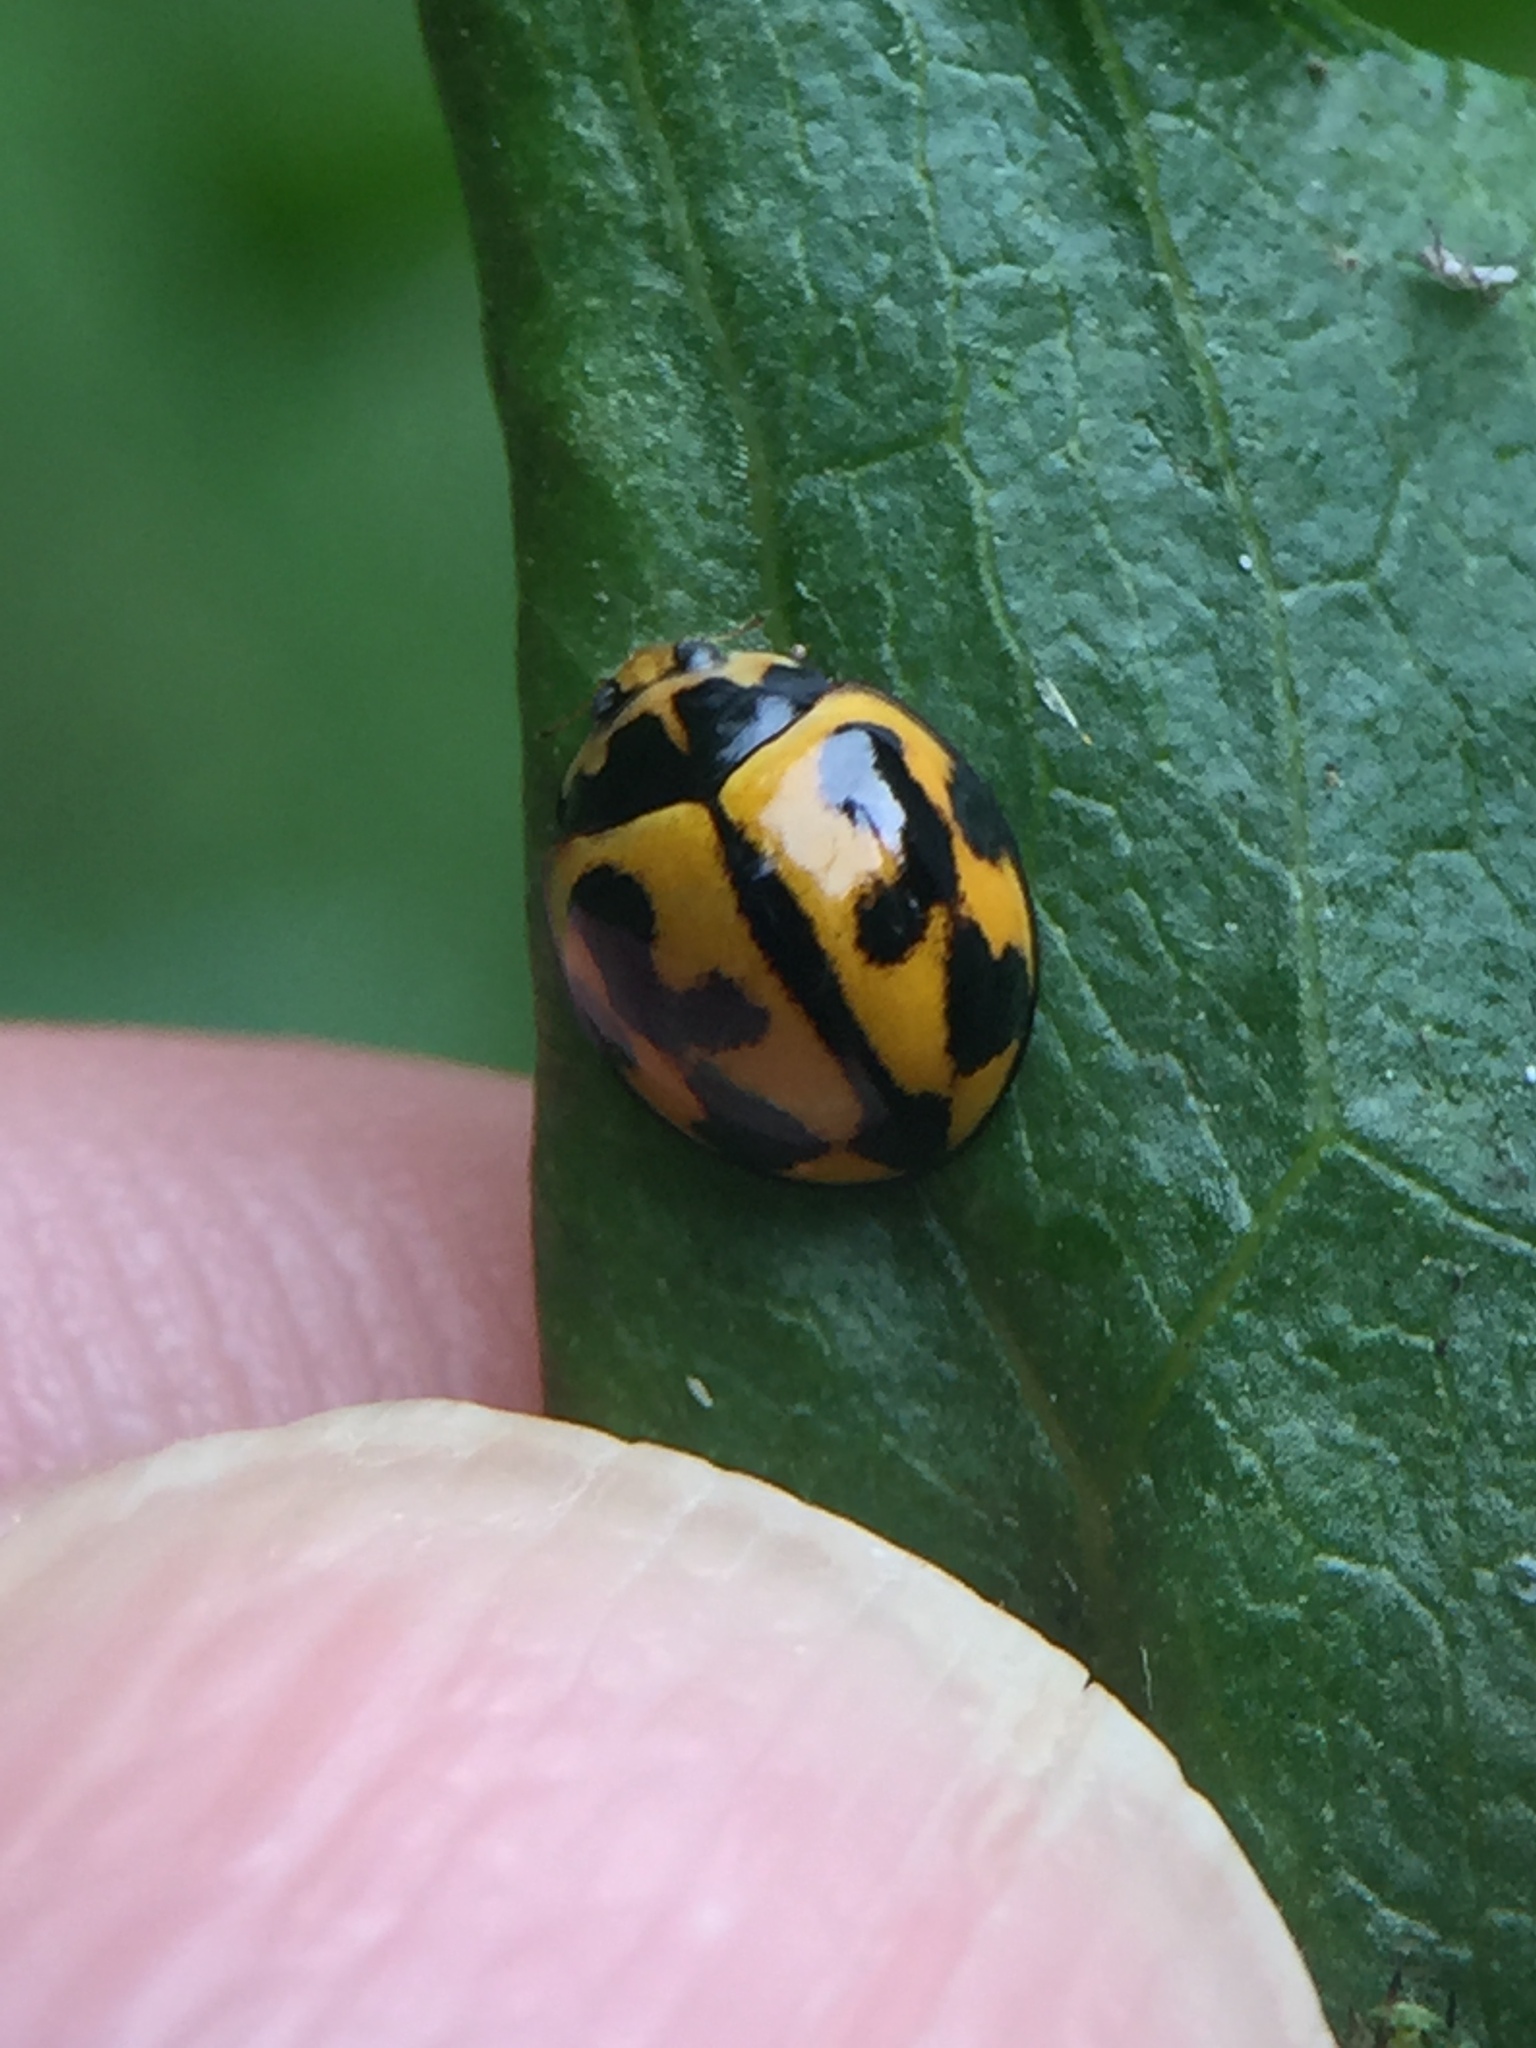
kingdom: Animalia
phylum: Arthropoda
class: Insecta
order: Coleoptera
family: Coccinellidae
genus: Coelophora
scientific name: Coelophora inaequalis
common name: Common australian lady beetle
